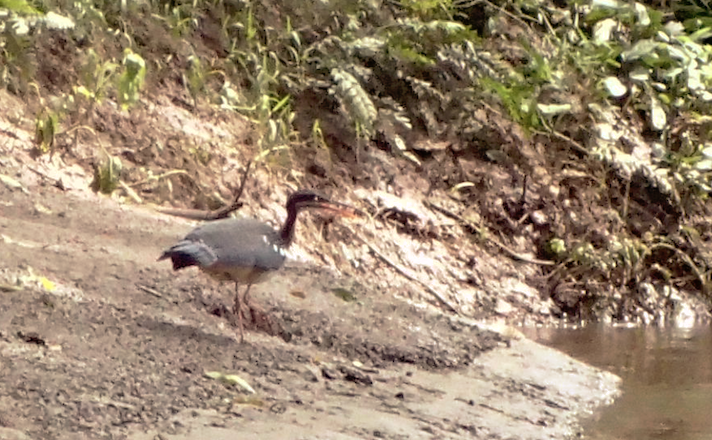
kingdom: Animalia
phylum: Chordata
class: Aves
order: Eurypygiformes
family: Eurypygidae
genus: Eurypyga
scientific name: Eurypyga helias
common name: Sunbittern
